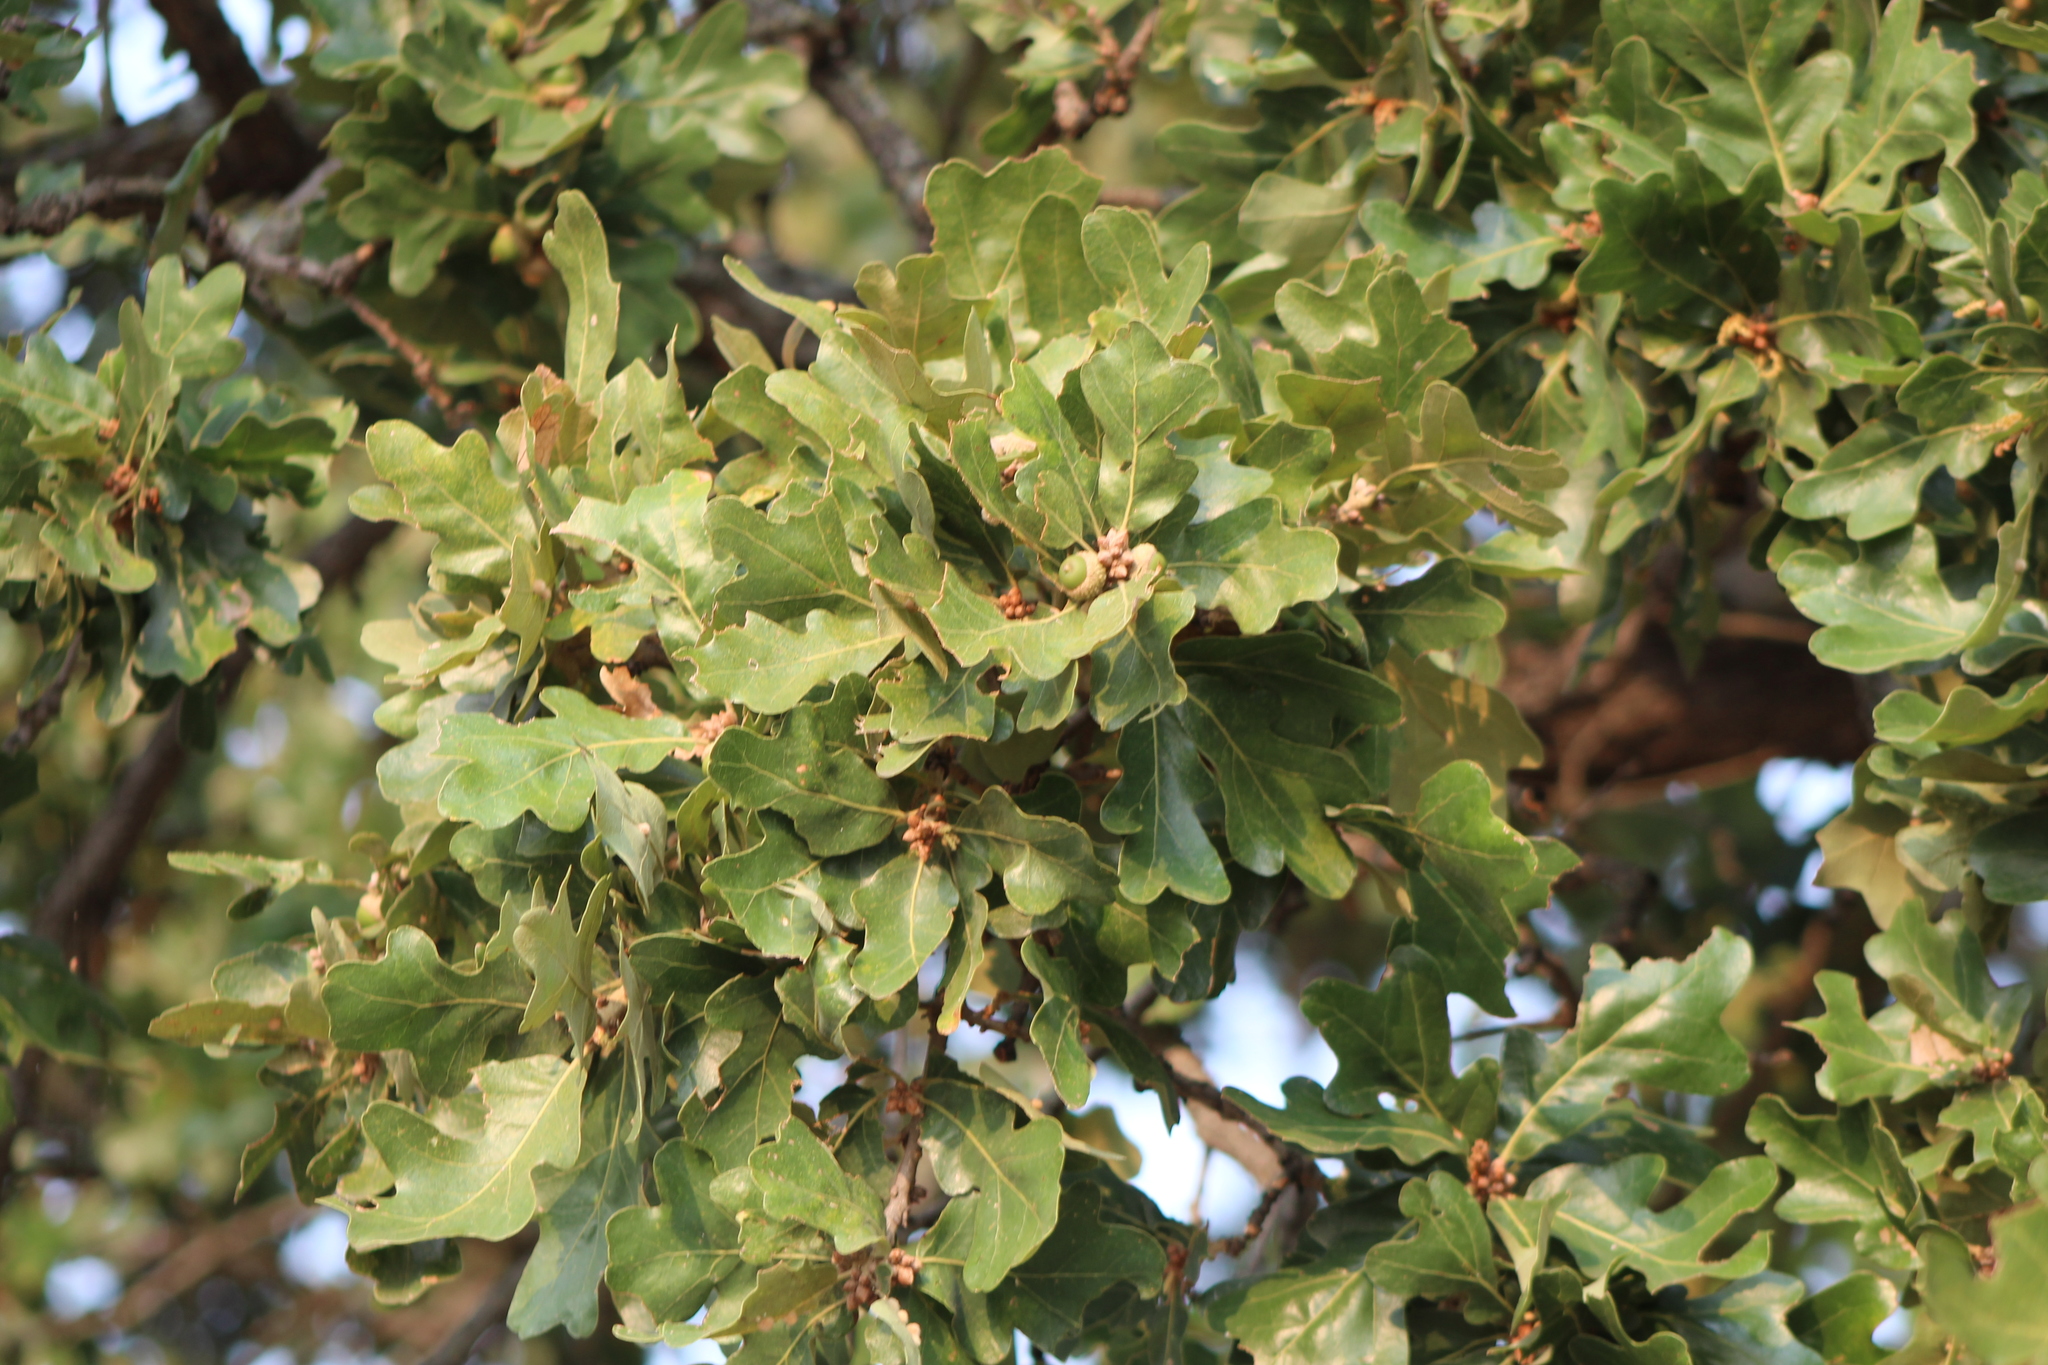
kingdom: Plantae
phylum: Tracheophyta
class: Magnoliopsida
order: Fagales
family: Fagaceae
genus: Quercus
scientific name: Quercus stellata
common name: Post oak
